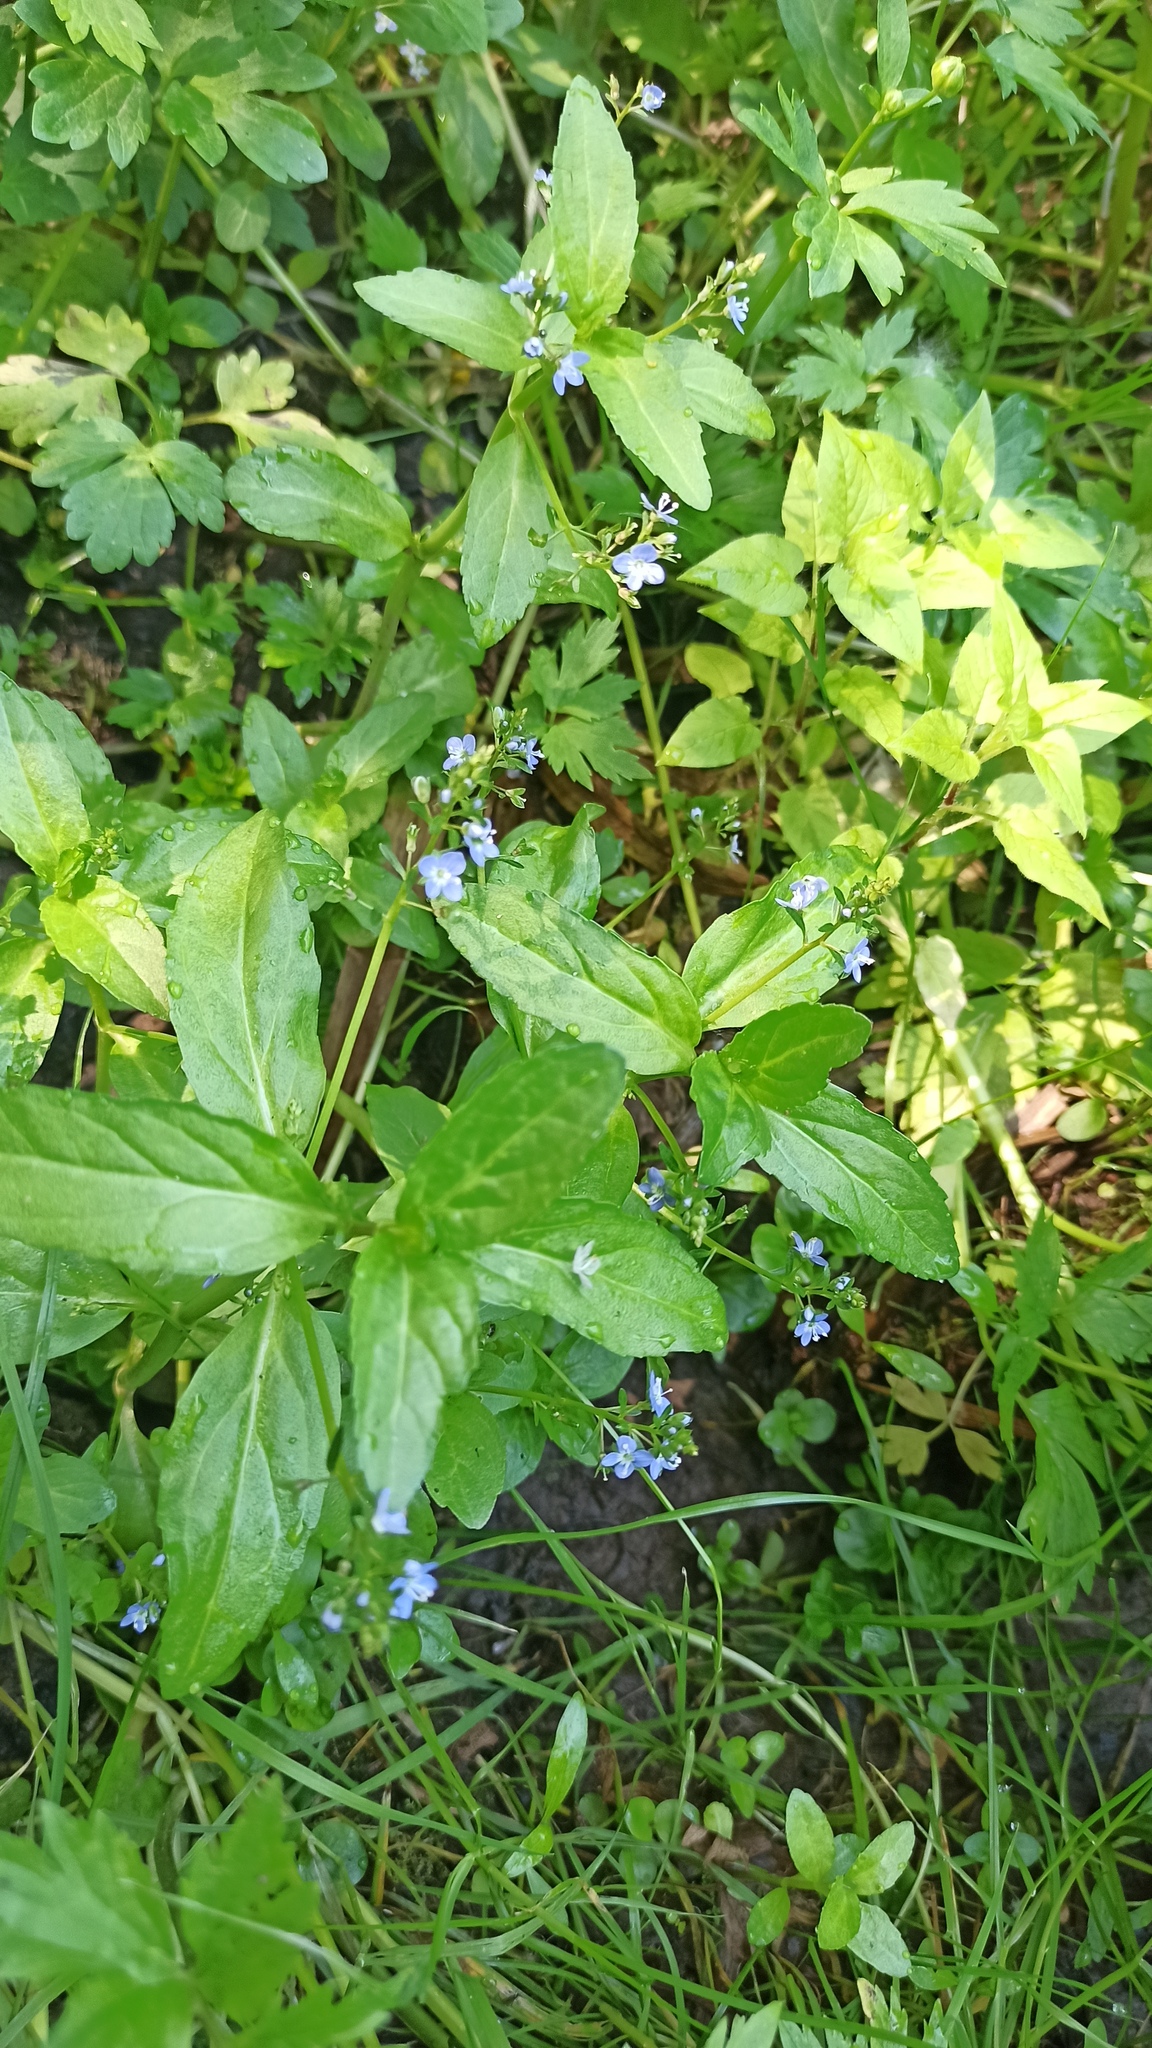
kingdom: Plantae
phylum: Tracheophyta
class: Magnoliopsida
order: Lamiales
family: Plantaginaceae
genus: Veronica
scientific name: Veronica beccabunga
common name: Brooklime
